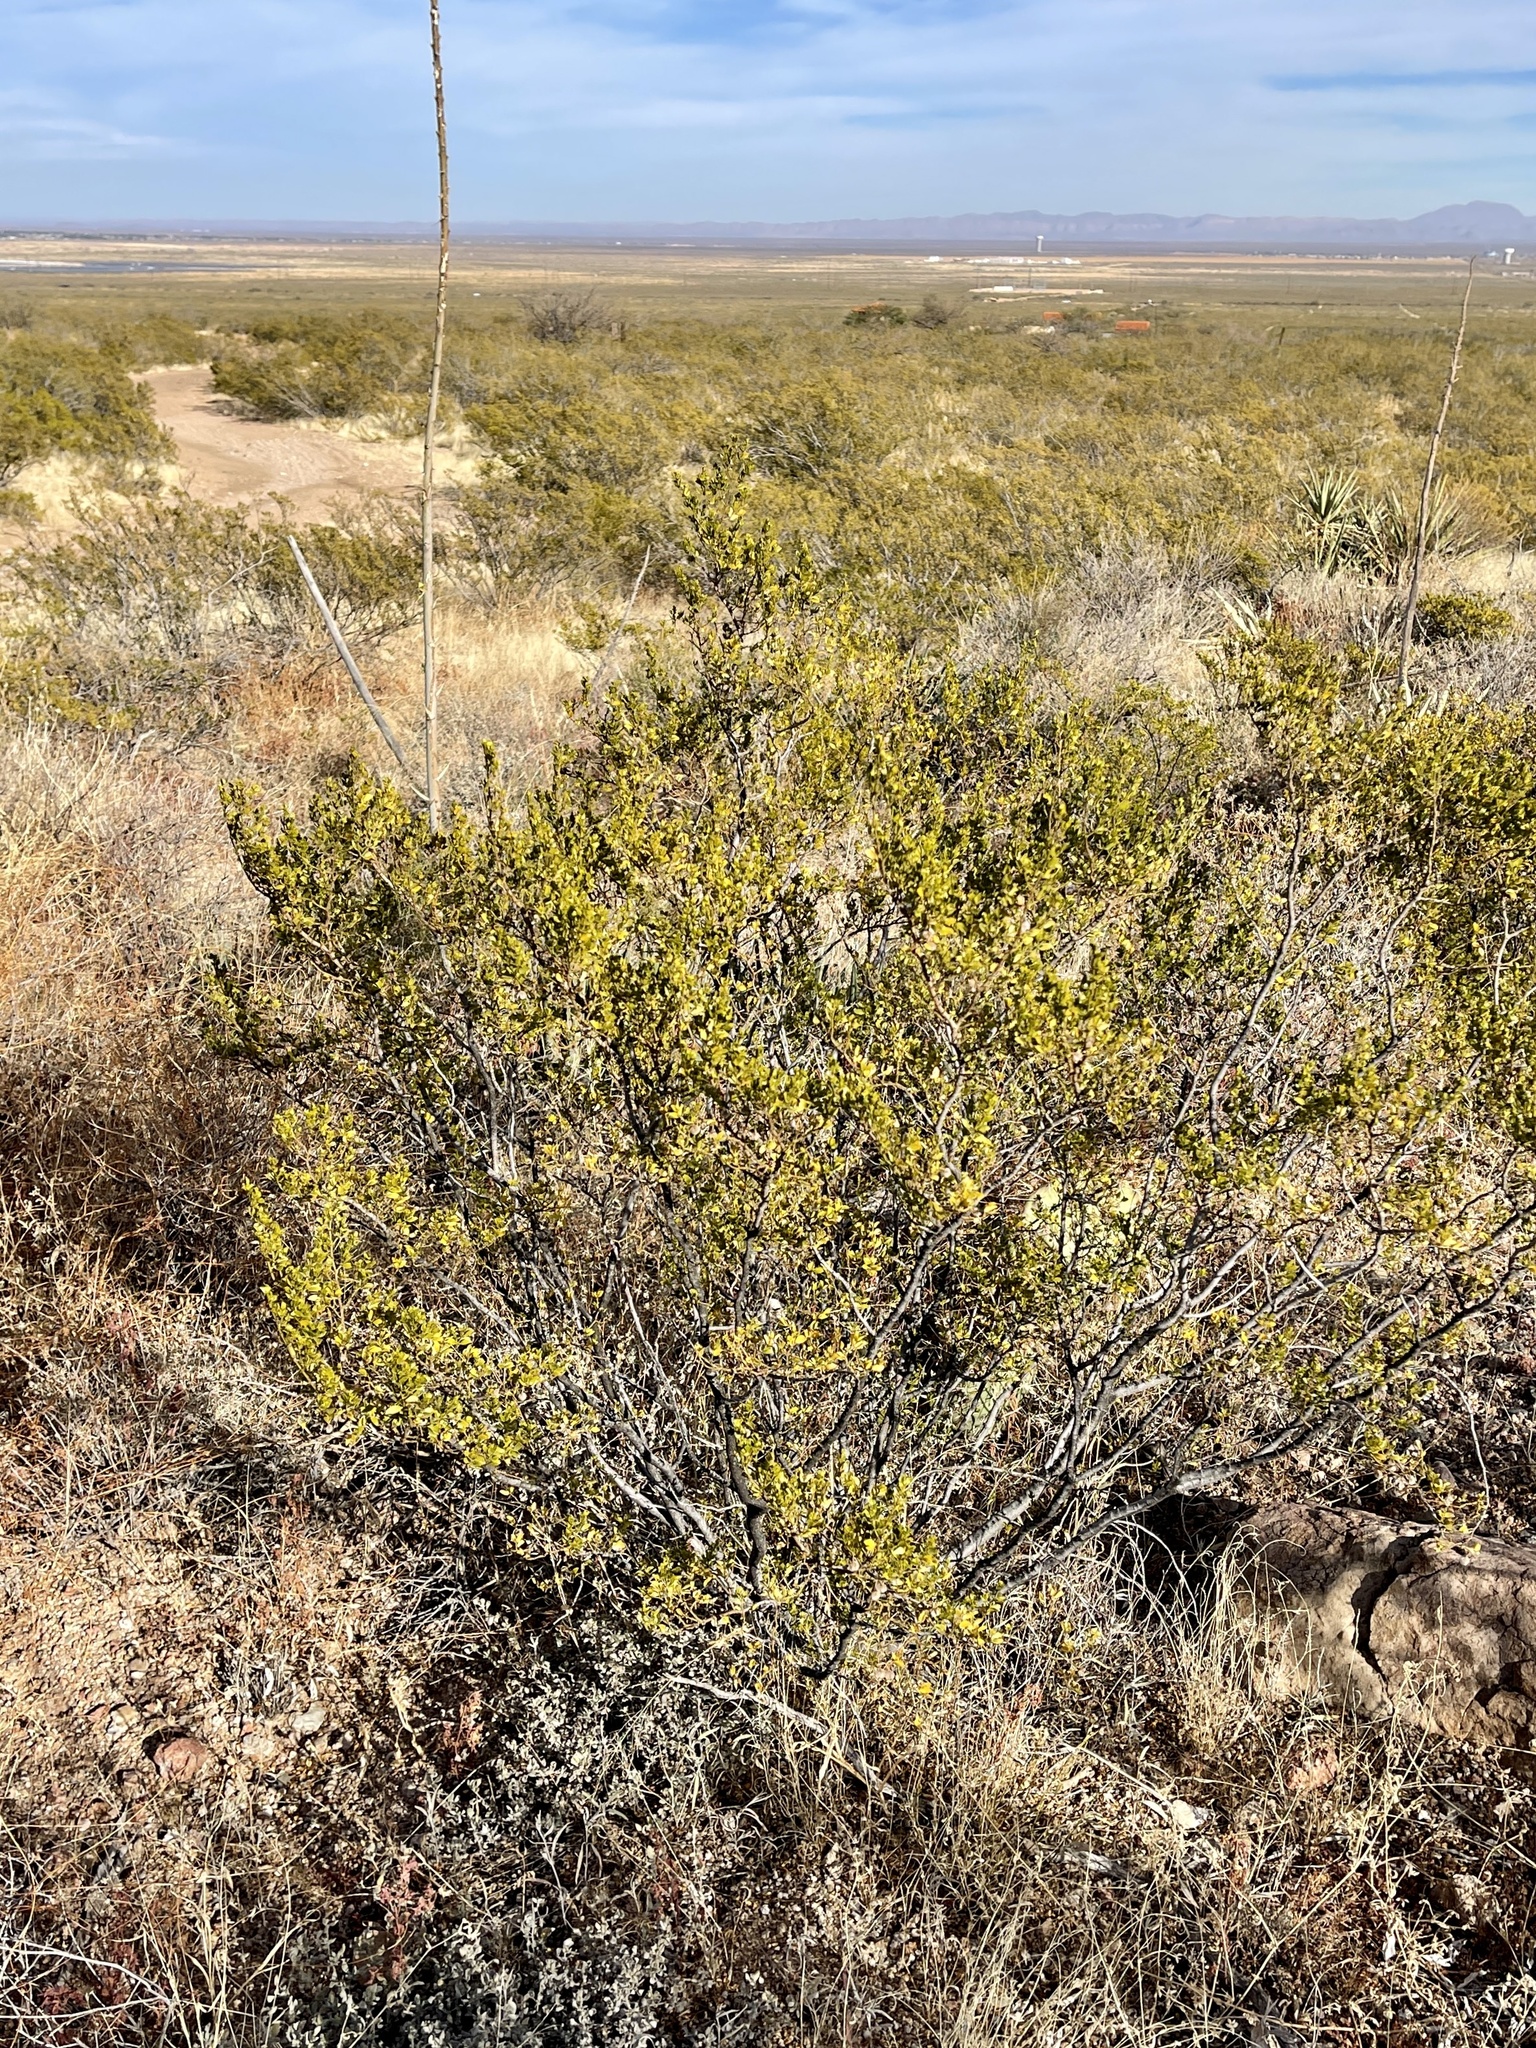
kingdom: Plantae
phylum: Tracheophyta
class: Magnoliopsida
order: Zygophyllales
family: Zygophyllaceae
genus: Larrea
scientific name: Larrea tridentata
